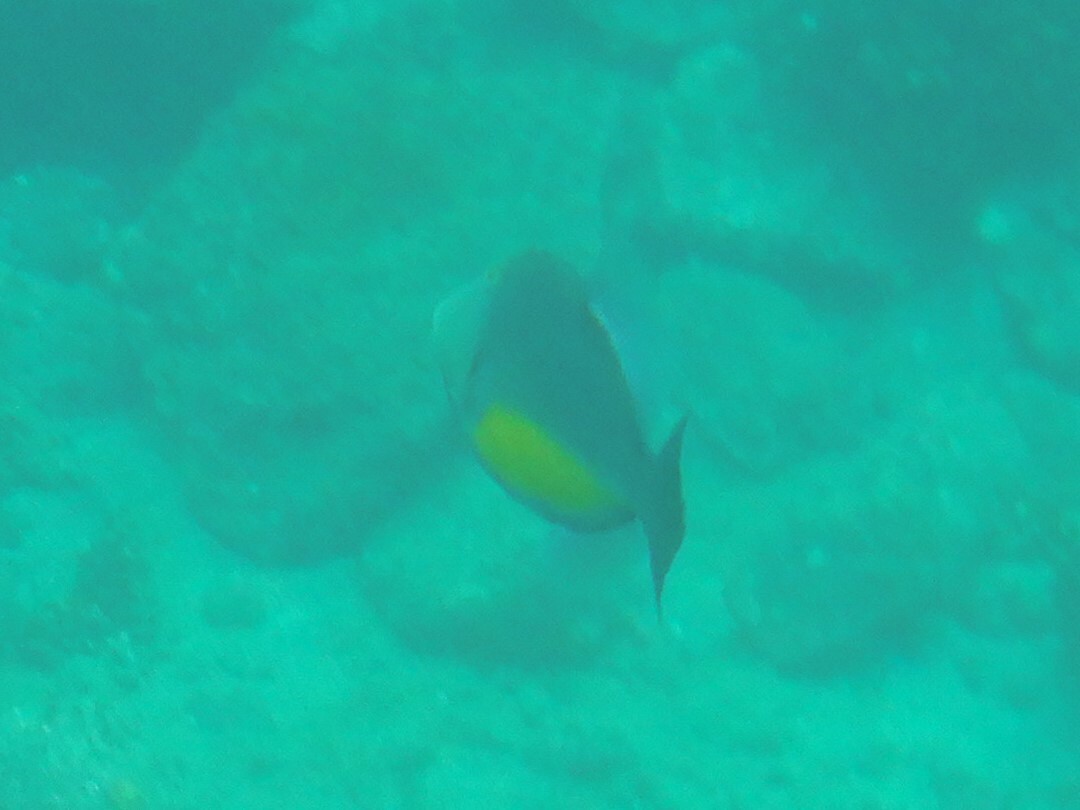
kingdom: Animalia
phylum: Chordata
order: Tetraodontiformes
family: Balistidae
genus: Sufflamen
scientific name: Sufflamen verres
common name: Orangeside triggerfish
